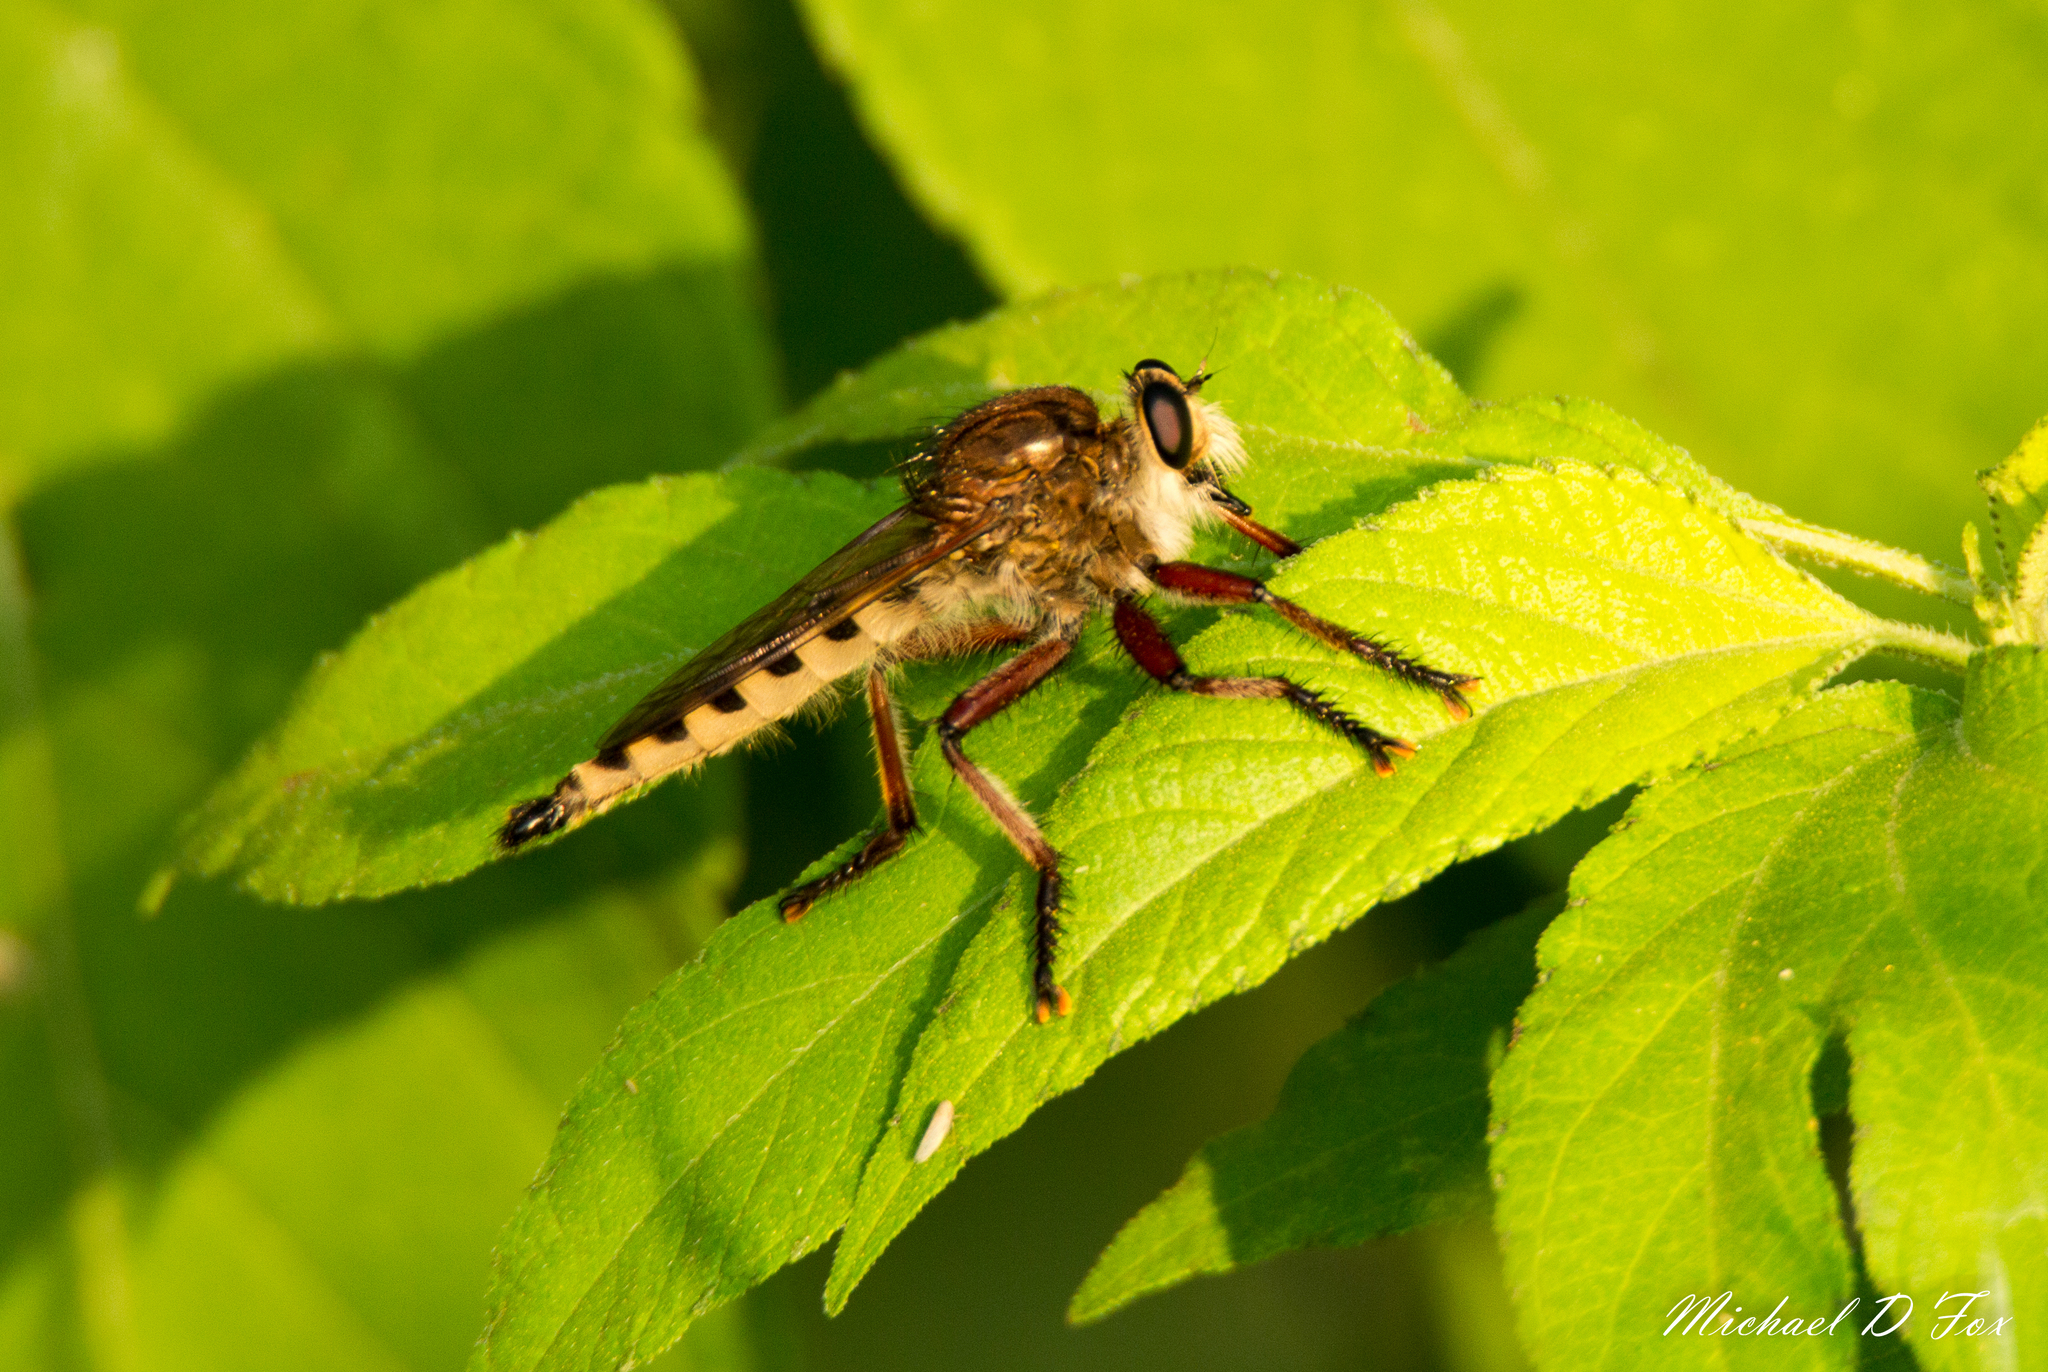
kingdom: Animalia
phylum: Arthropoda
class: Insecta
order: Diptera
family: Asilidae
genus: Promachus
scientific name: Promachus hinei
